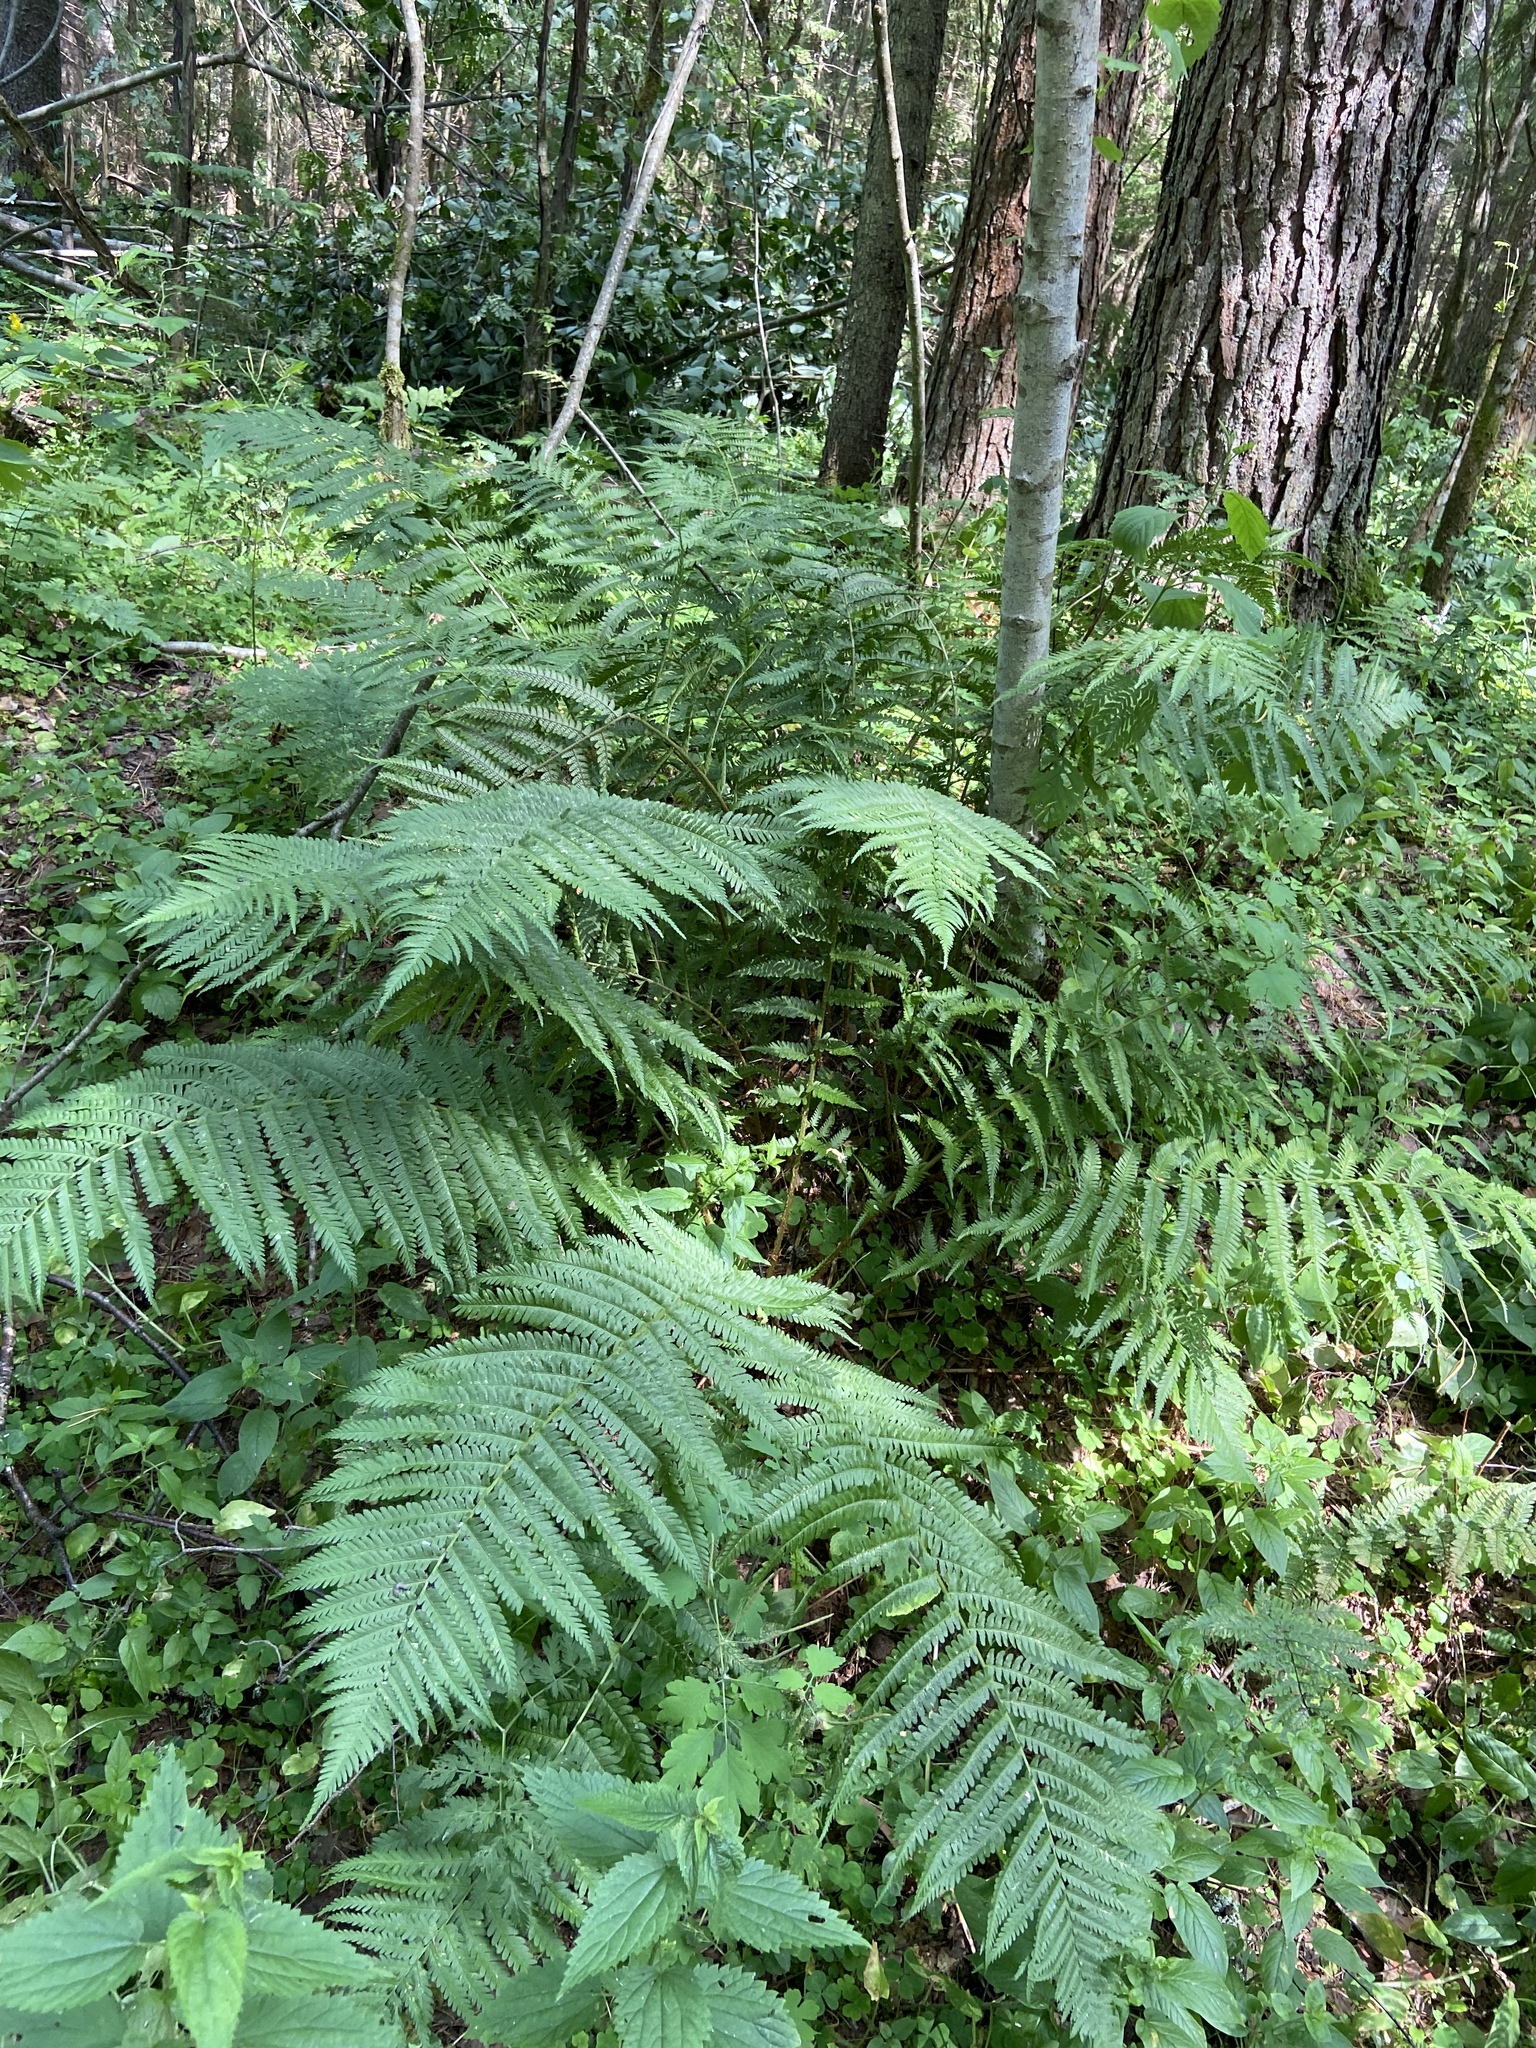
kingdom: Plantae
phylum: Tracheophyta
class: Polypodiopsida
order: Polypodiales
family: Dryopteridaceae
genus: Dryopteris
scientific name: Dryopteris filix-mas
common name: Male fern
